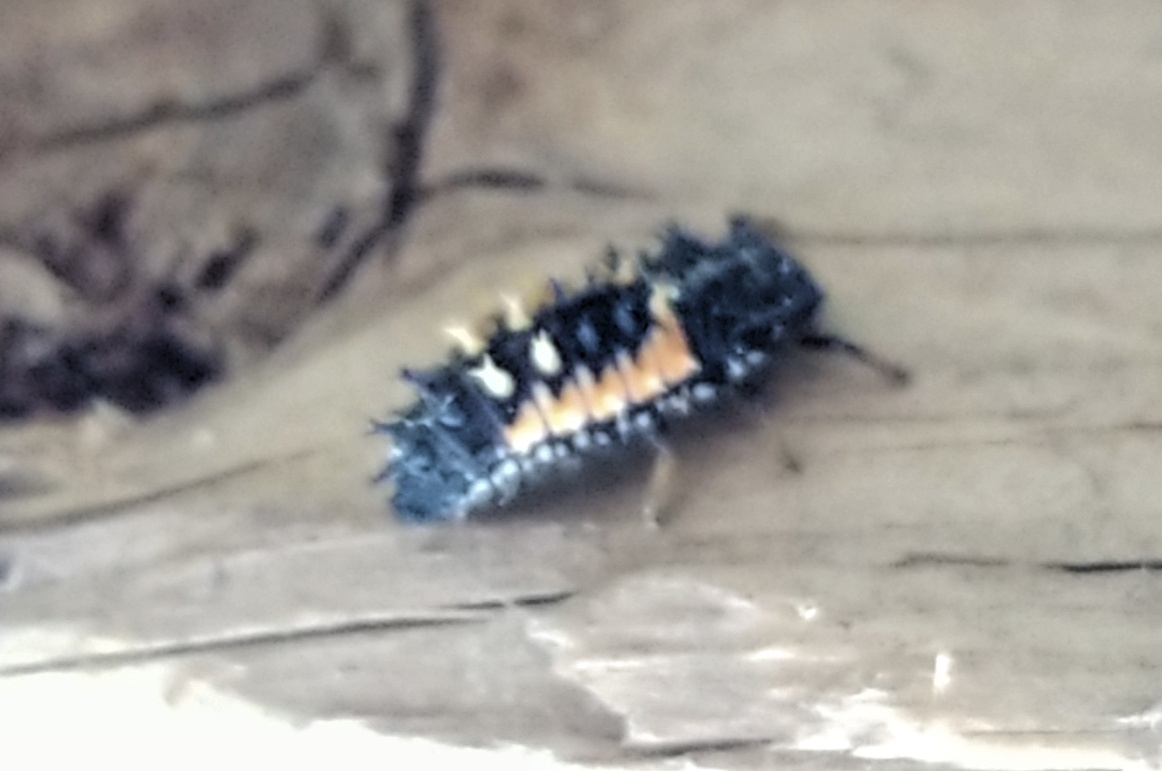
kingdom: Animalia
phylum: Arthropoda
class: Insecta
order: Coleoptera
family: Coccinellidae
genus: Harmonia
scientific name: Harmonia axyridis
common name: Harlequin ladybird
